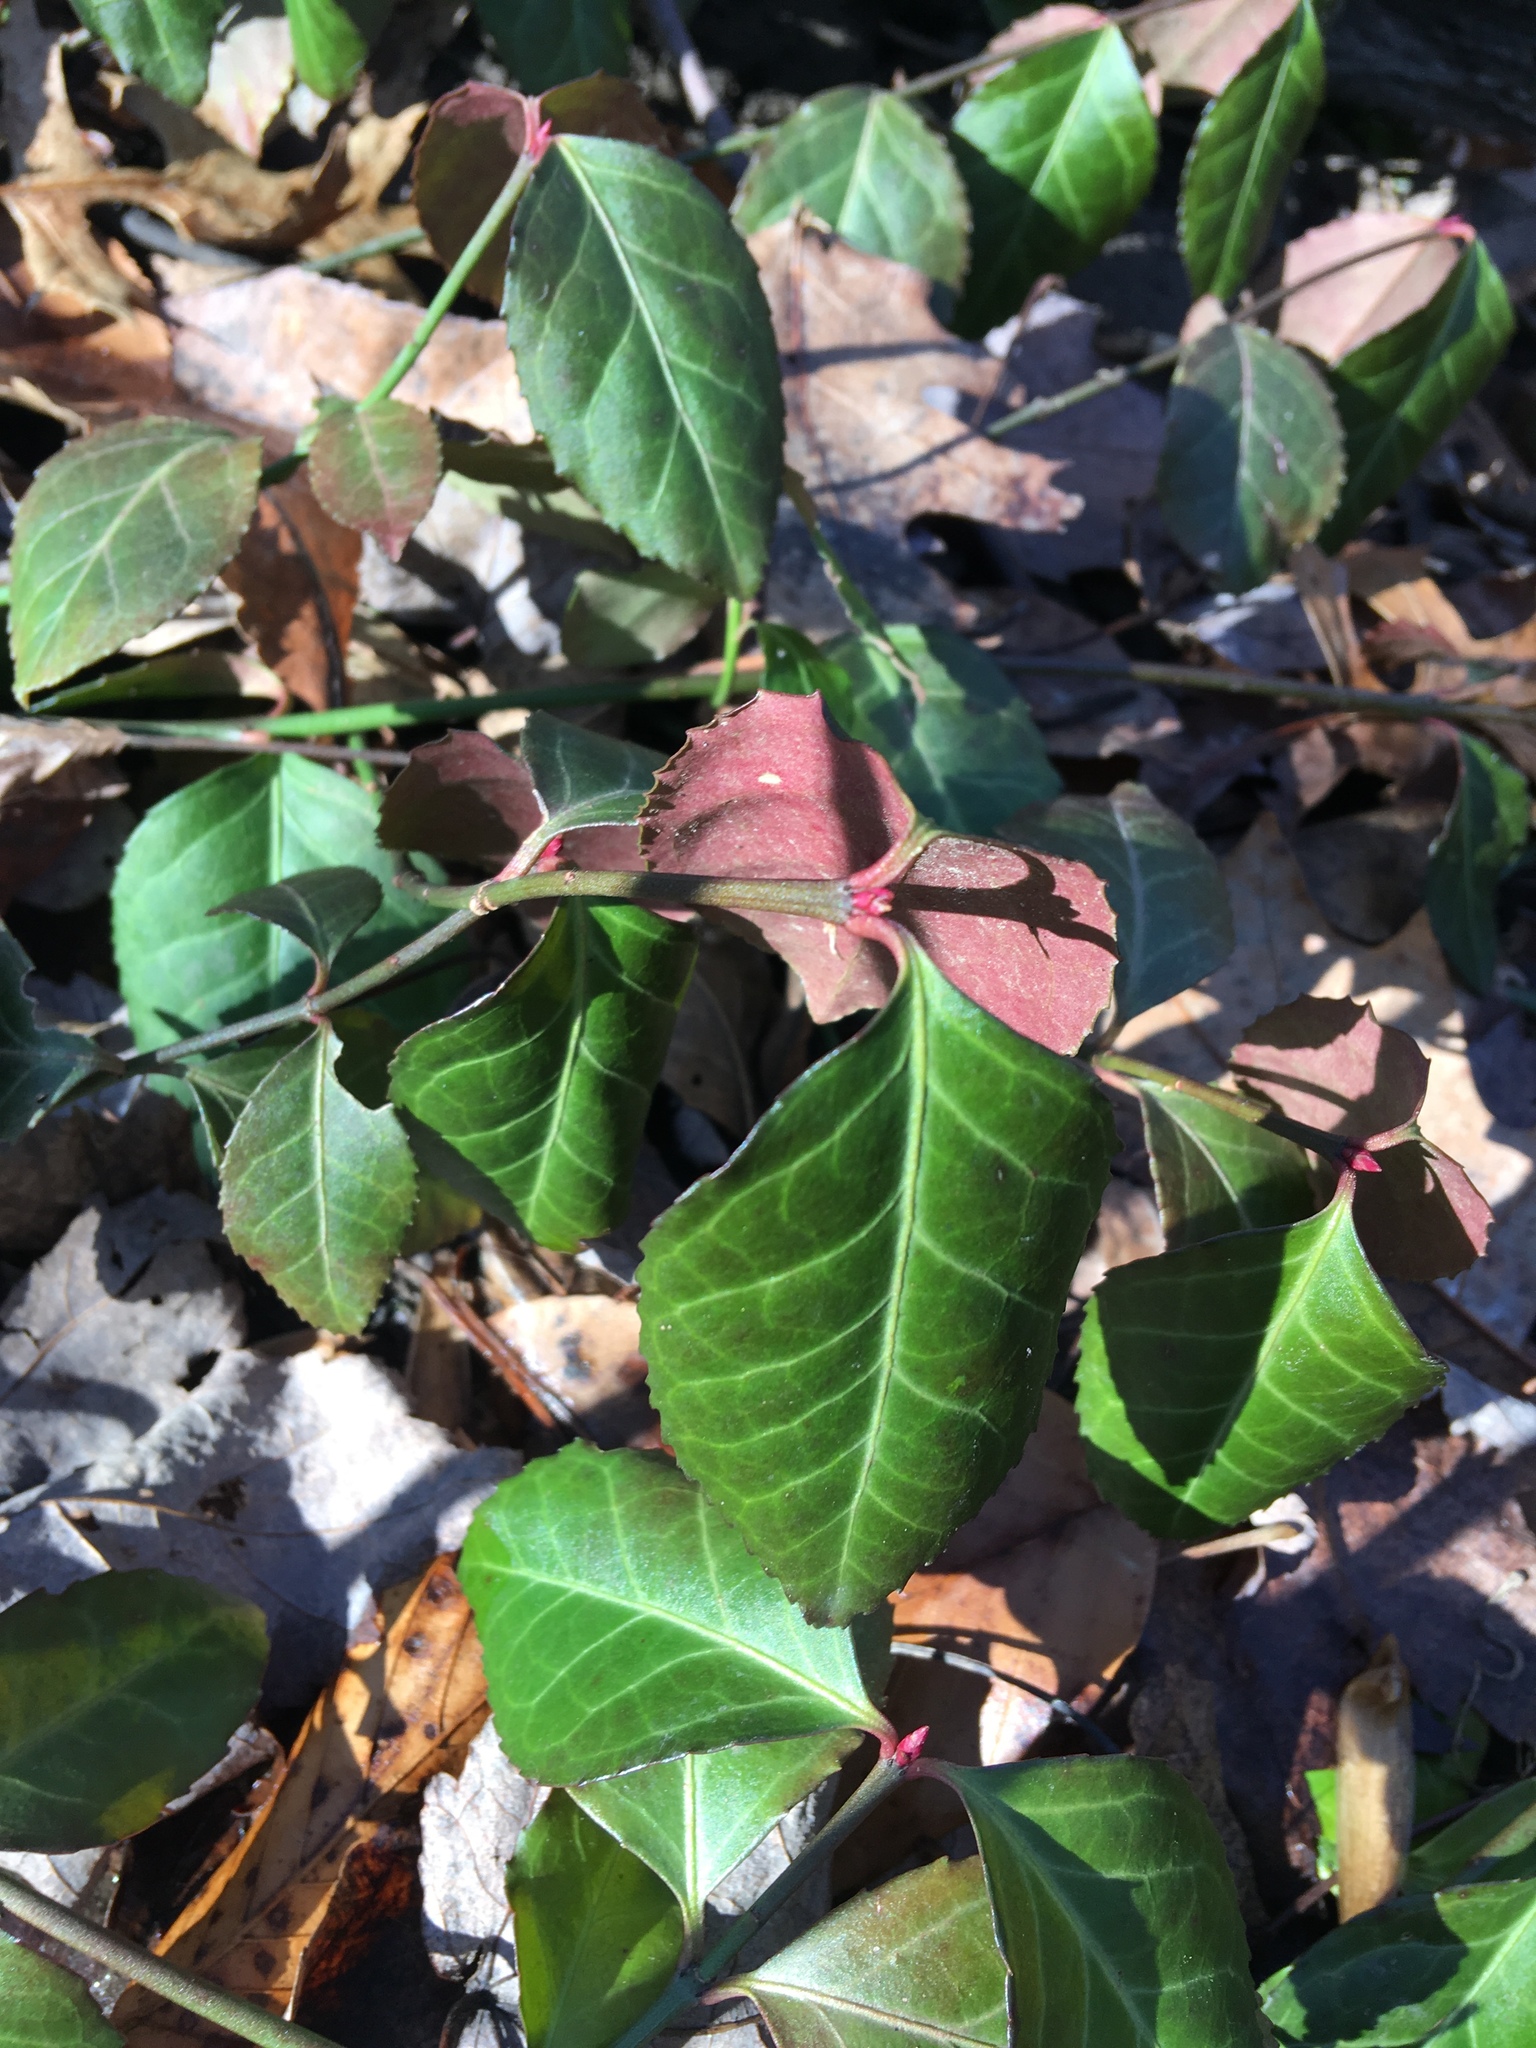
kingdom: Plantae
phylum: Tracheophyta
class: Magnoliopsida
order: Celastrales
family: Celastraceae
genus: Euonymus
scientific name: Euonymus fortunei
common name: Climbing euonymus
